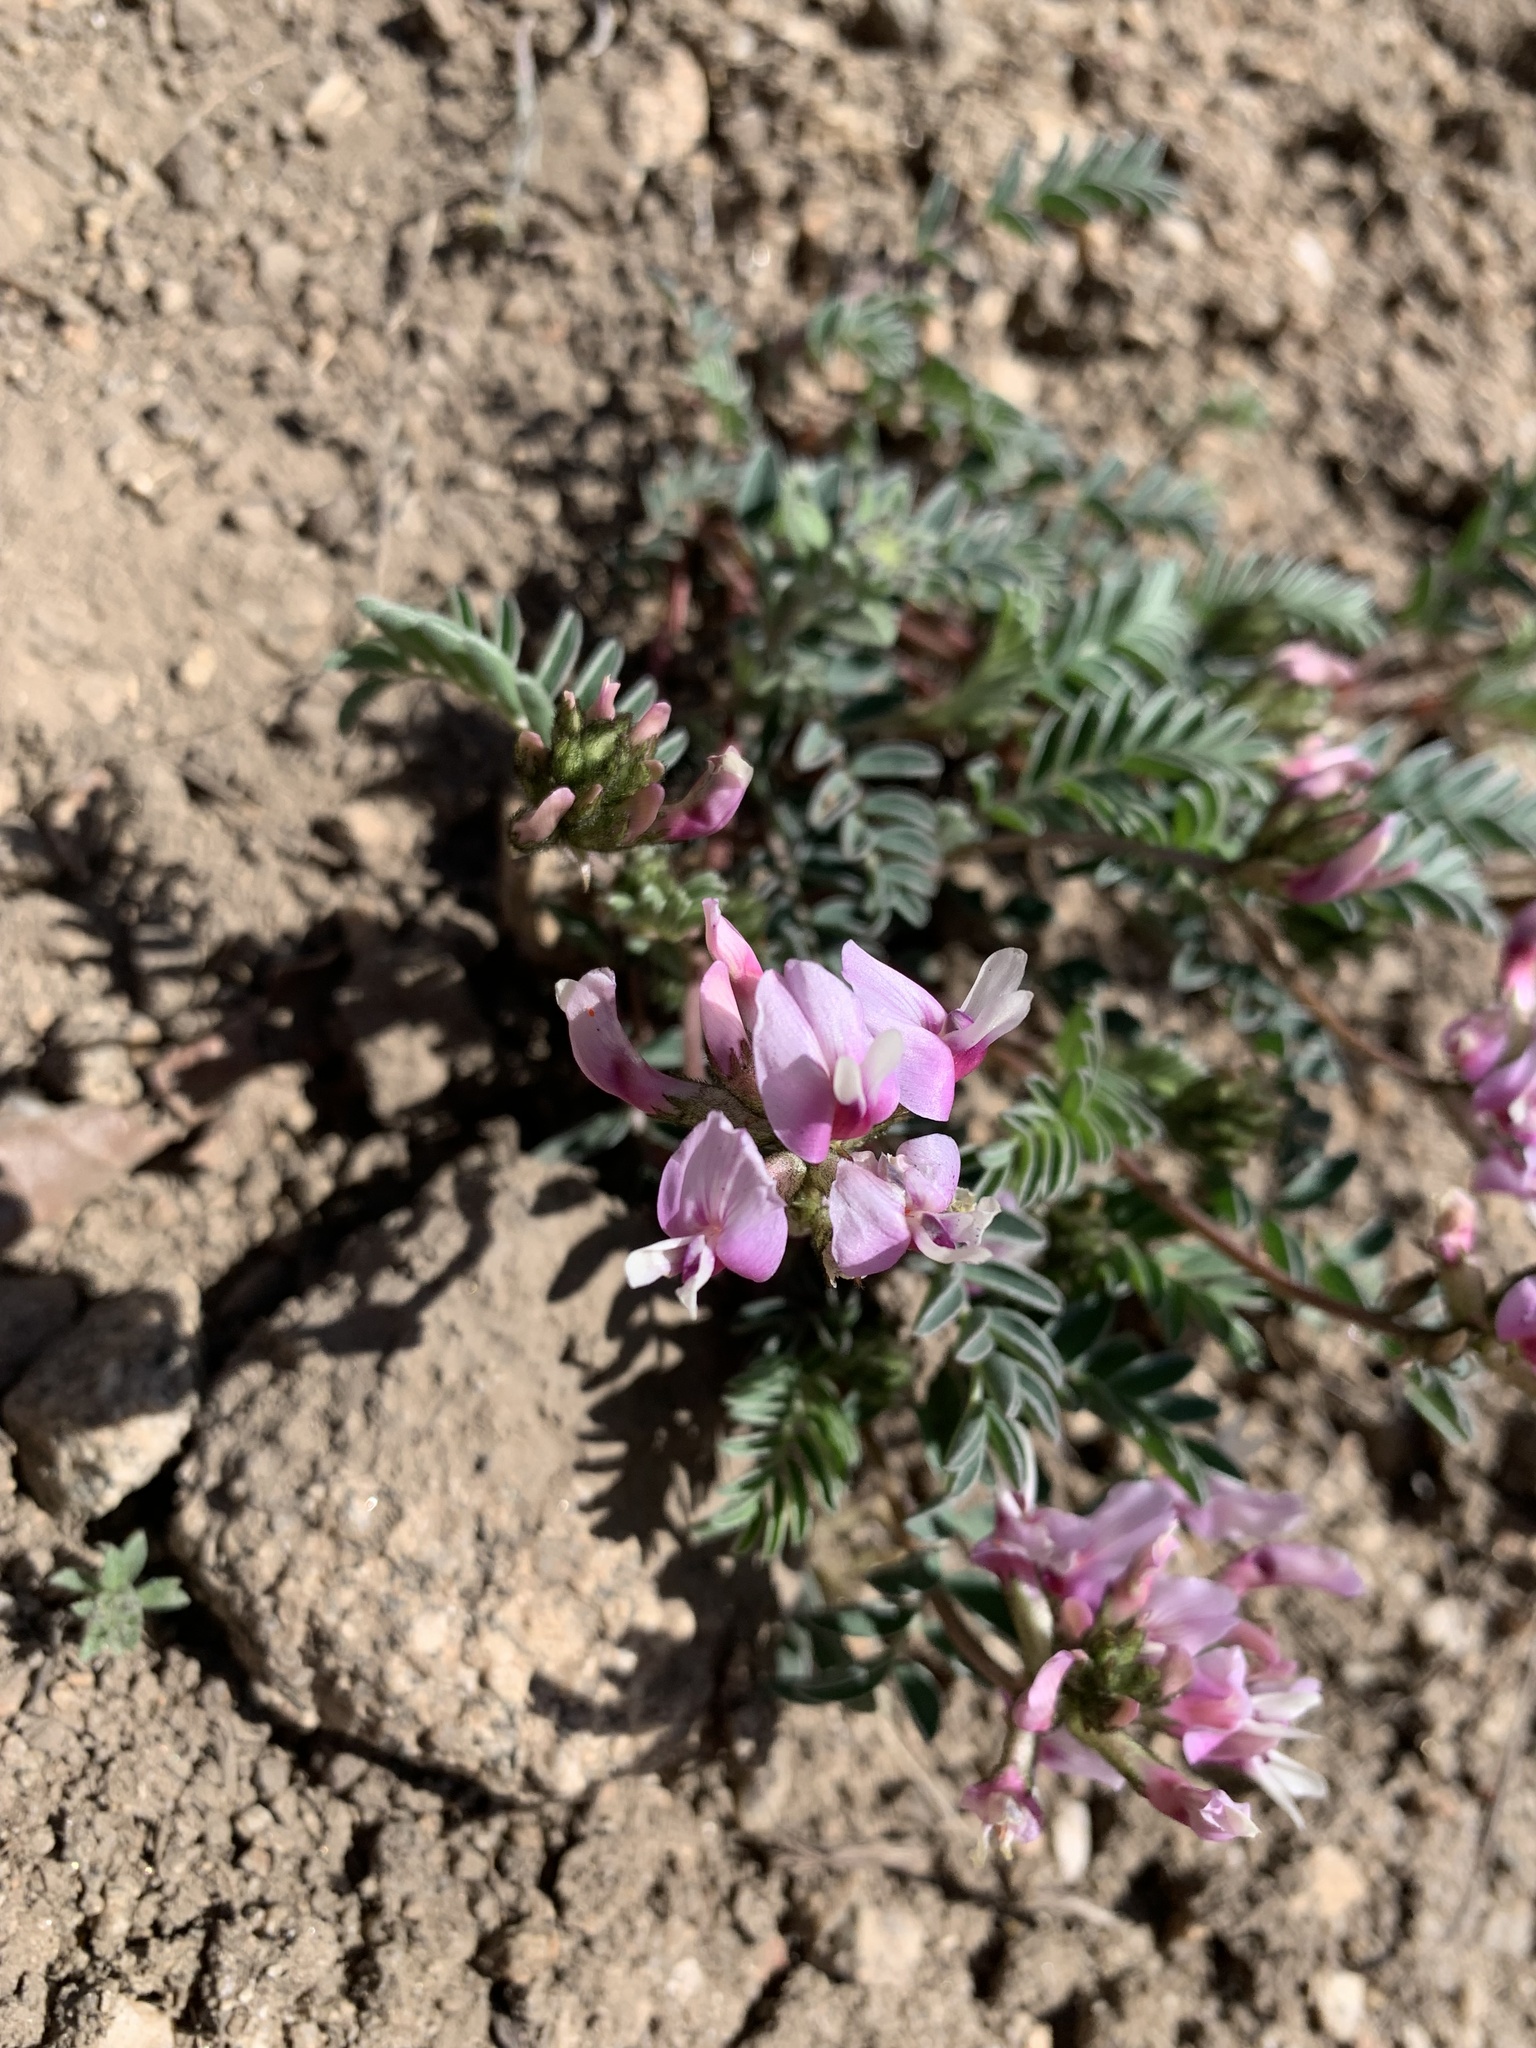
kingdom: Plantae
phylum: Tracheophyta
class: Magnoliopsida
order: Fabales
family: Fabaceae
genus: Astragalus
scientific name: Astragalus cibarius
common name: Browse milk-vetch
